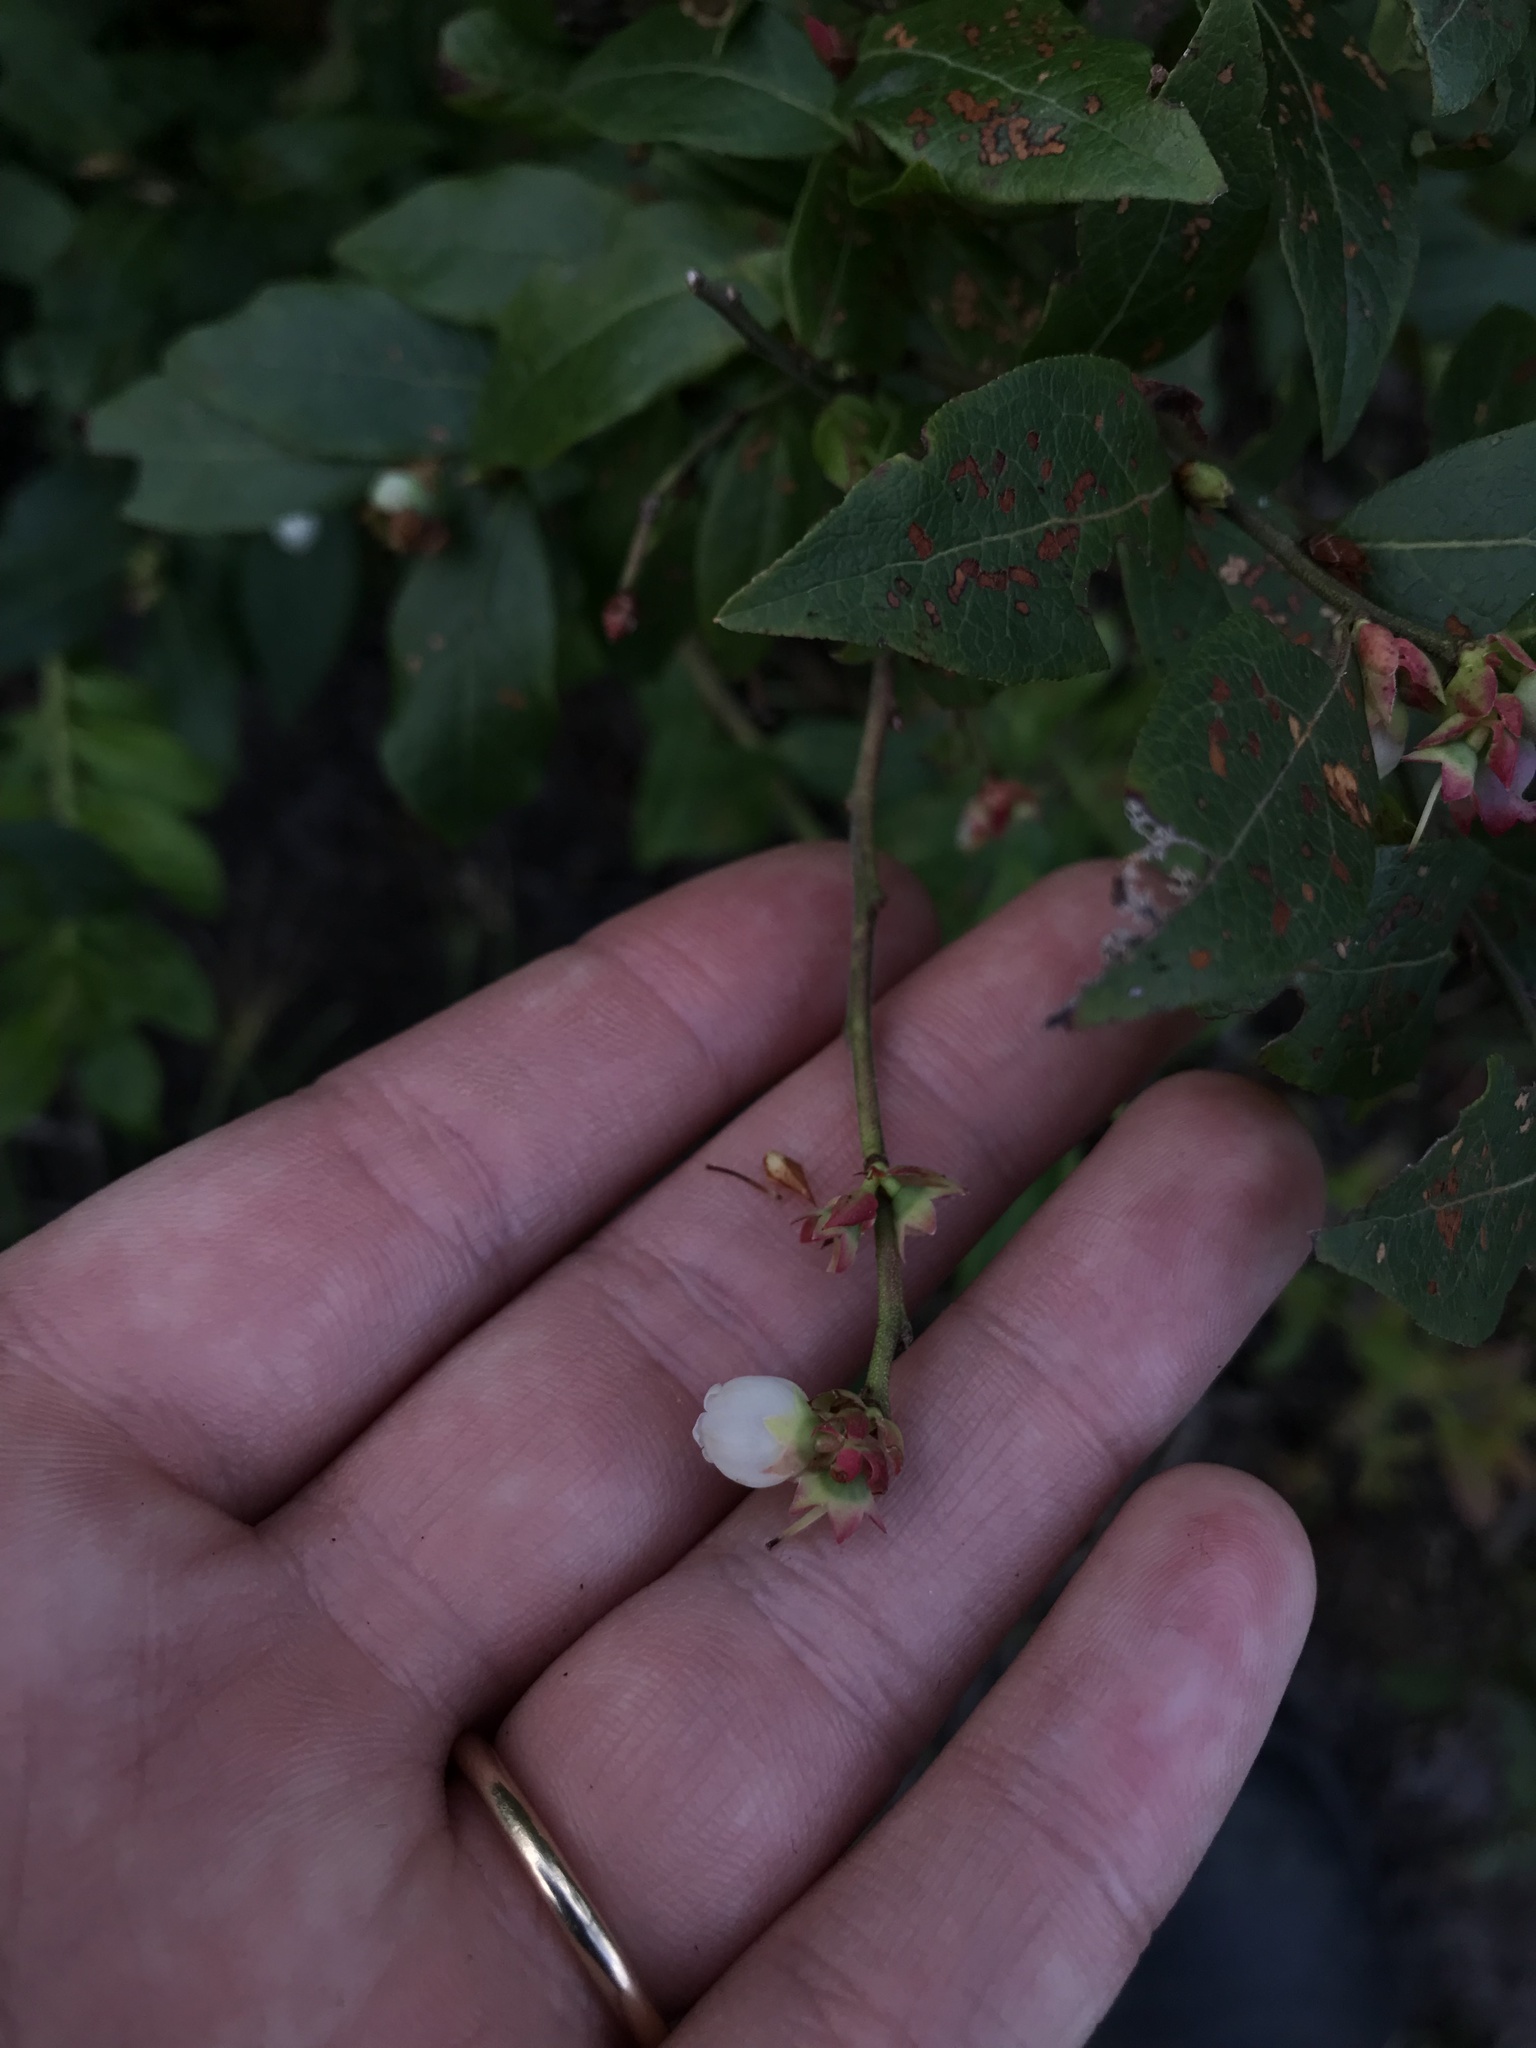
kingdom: Plantae
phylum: Tracheophyta
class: Magnoliopsida
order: Ericales
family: Ericaceae
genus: Vaccinium
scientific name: Vaccinium angustifolium
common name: Early lowbush blueberry
